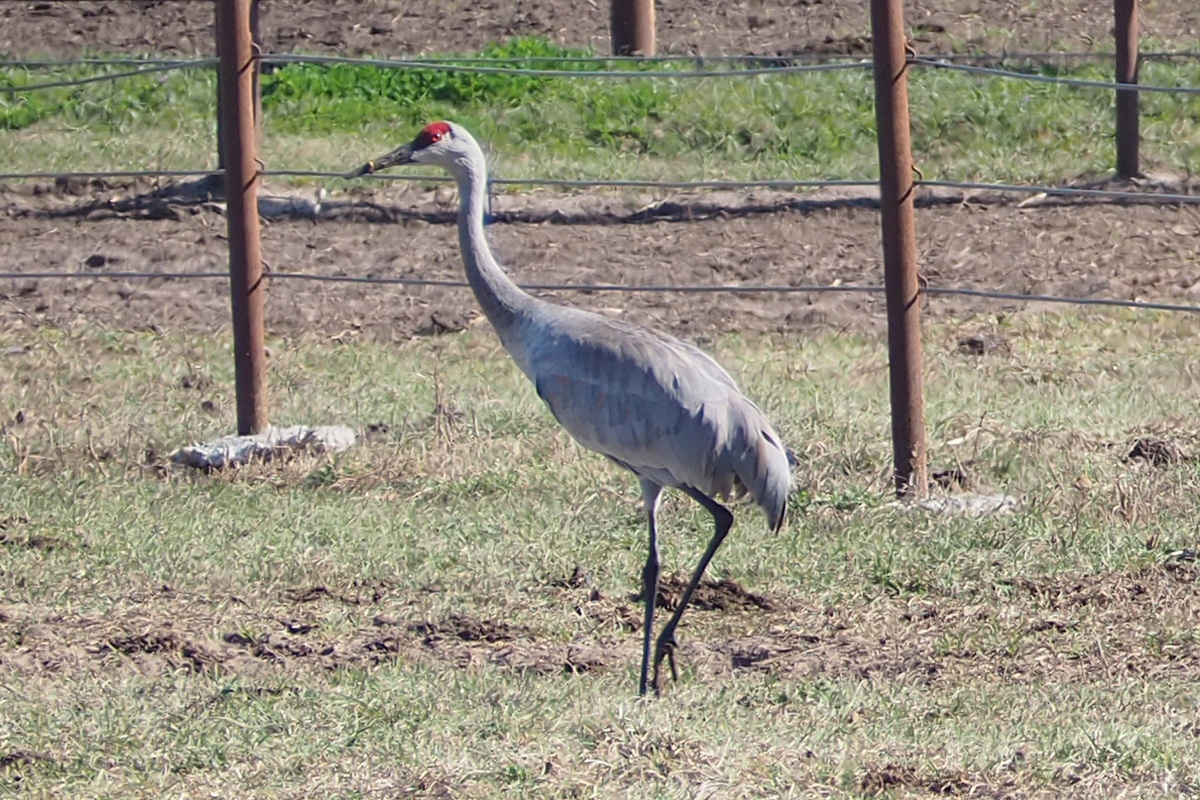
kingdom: Animalia
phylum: Chordata
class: Aves
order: Gruiformes
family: Gruidae
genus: Grus
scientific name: Grus canadensis
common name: Sandhill crane
